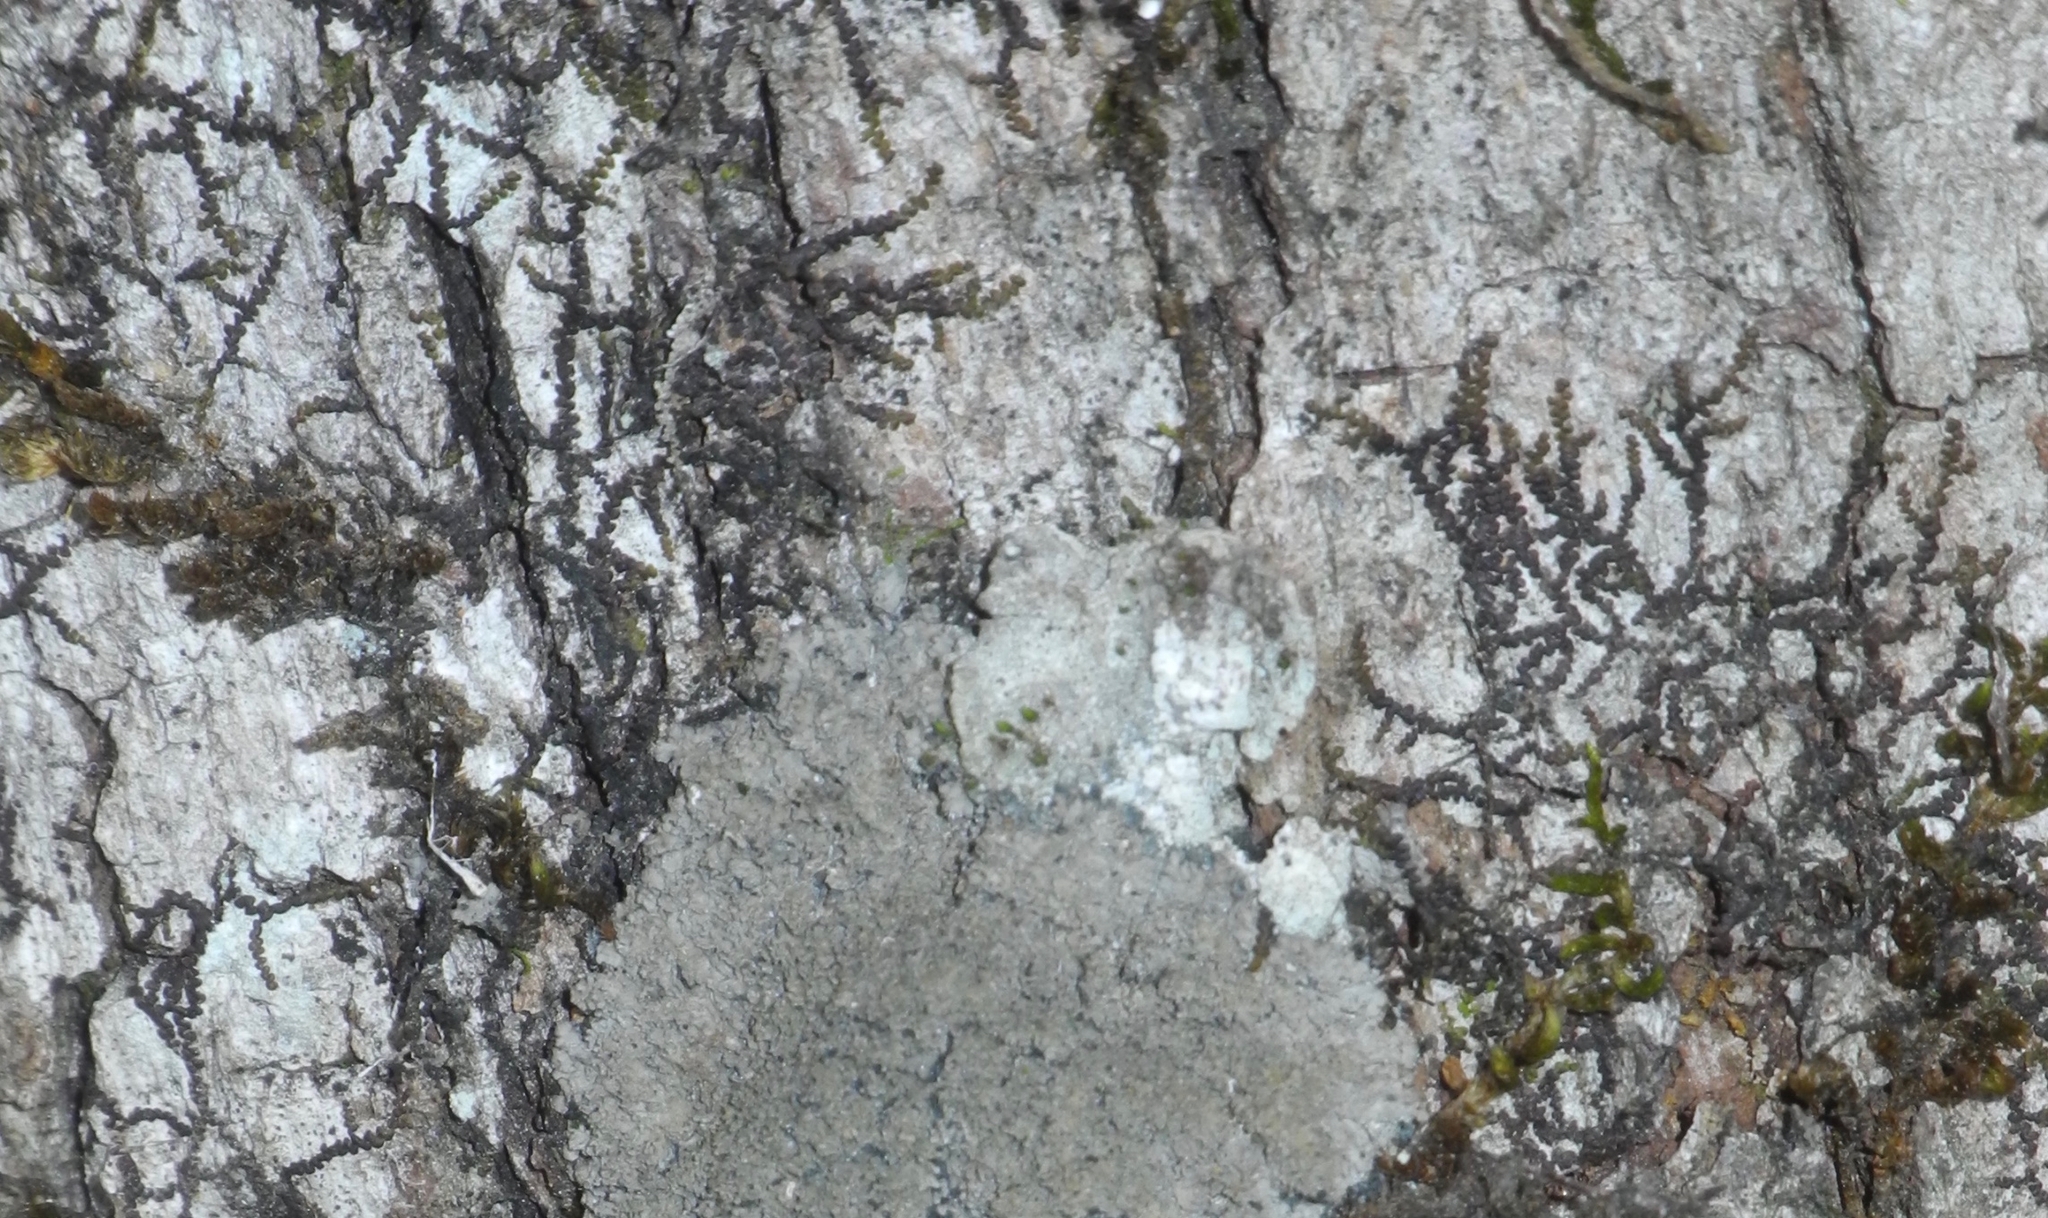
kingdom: Plantae
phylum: Marchantiophyta
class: Jungermanniopsida
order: Porellales
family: Frullaniaceae
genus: Frullania
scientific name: Frullania eboracensis
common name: New york scalewort
